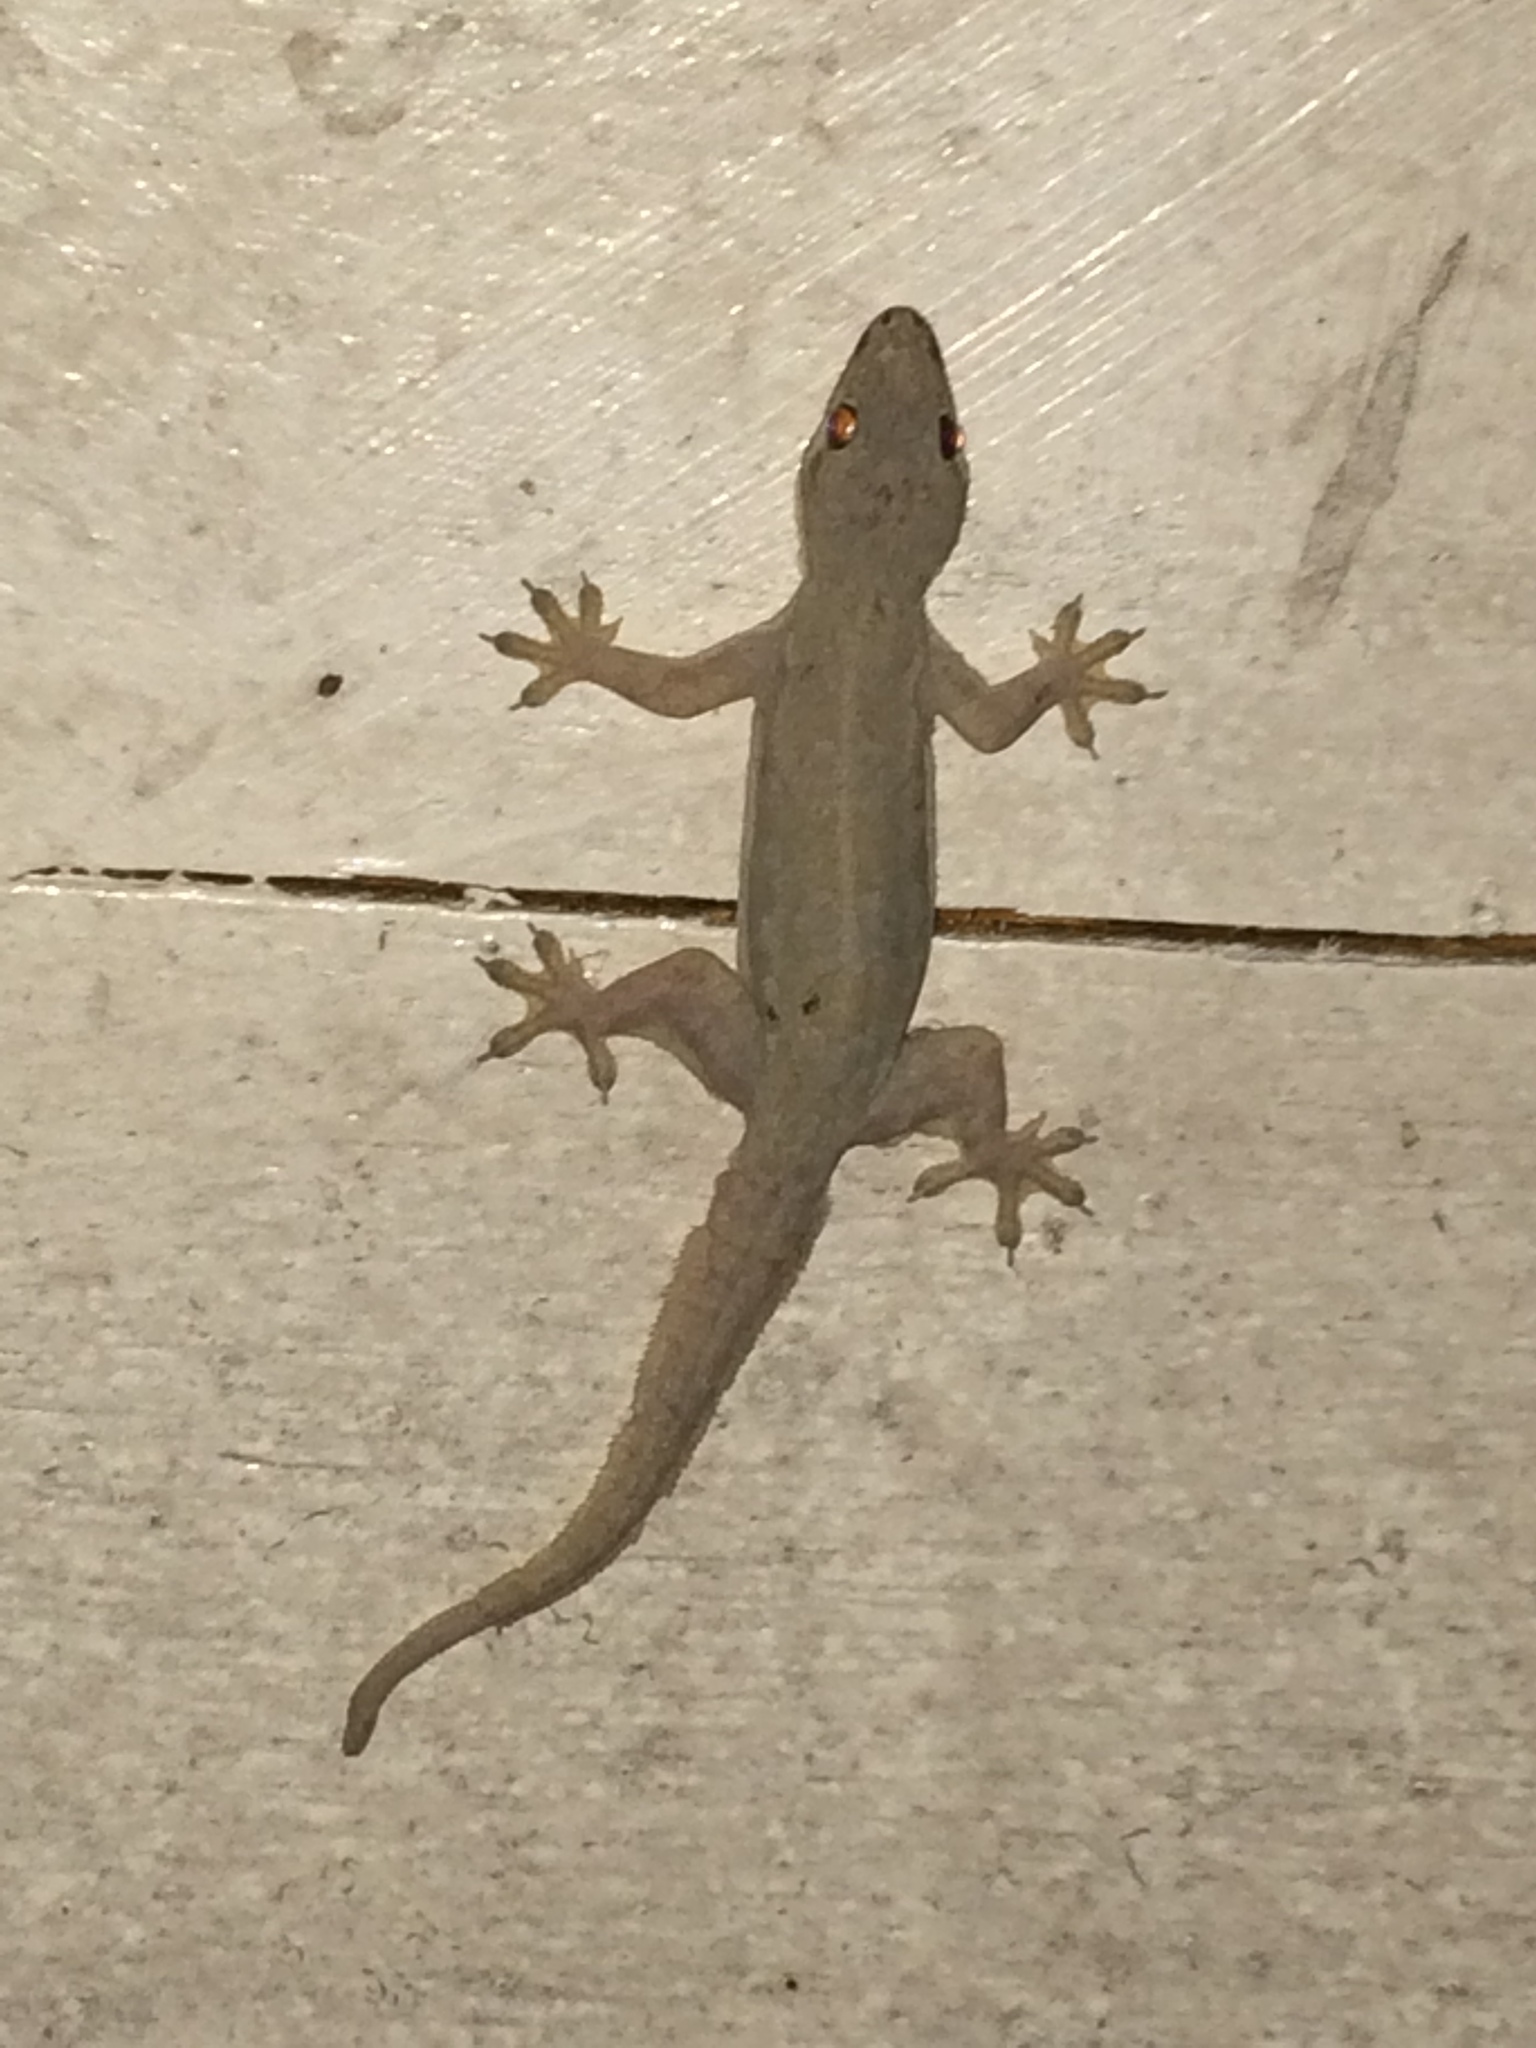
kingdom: Animalia
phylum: Chordata
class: Squamata
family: Gekkonidae
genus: Hemidactylus
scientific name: Hemidactylus platyurus
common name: Flat-tailed house gecko
